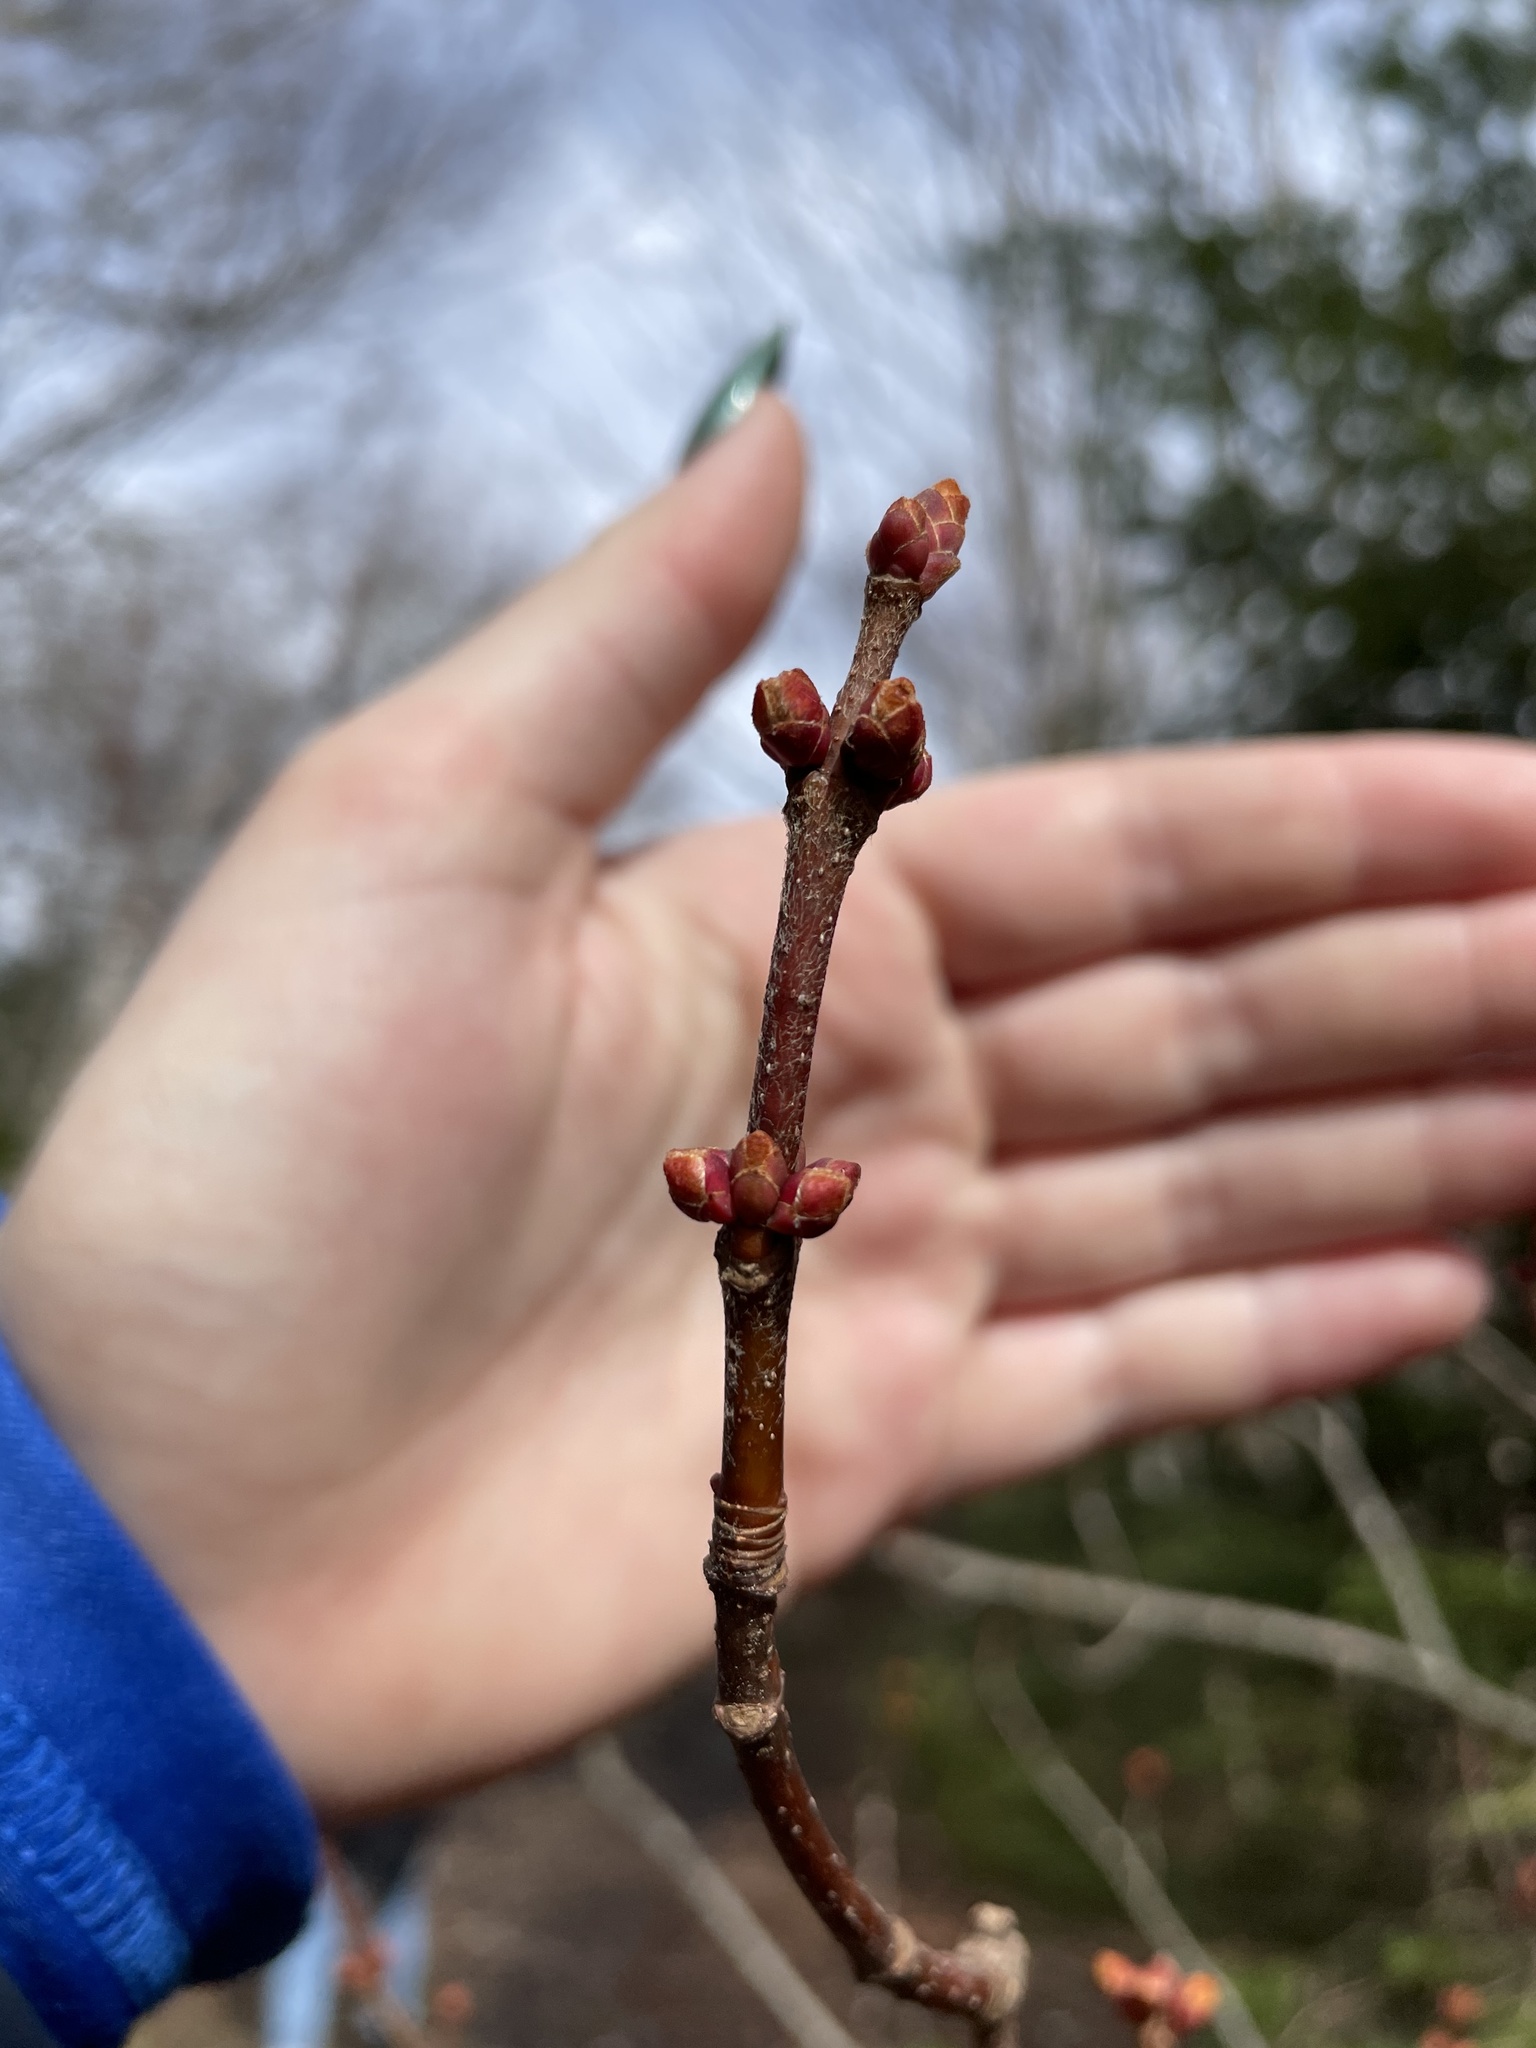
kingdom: Plantae
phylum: Tracheophyta
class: Magnoliopsida
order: Sapindales
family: Sapindaceae
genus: Acer
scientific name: Acer rubrum
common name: Red maple
